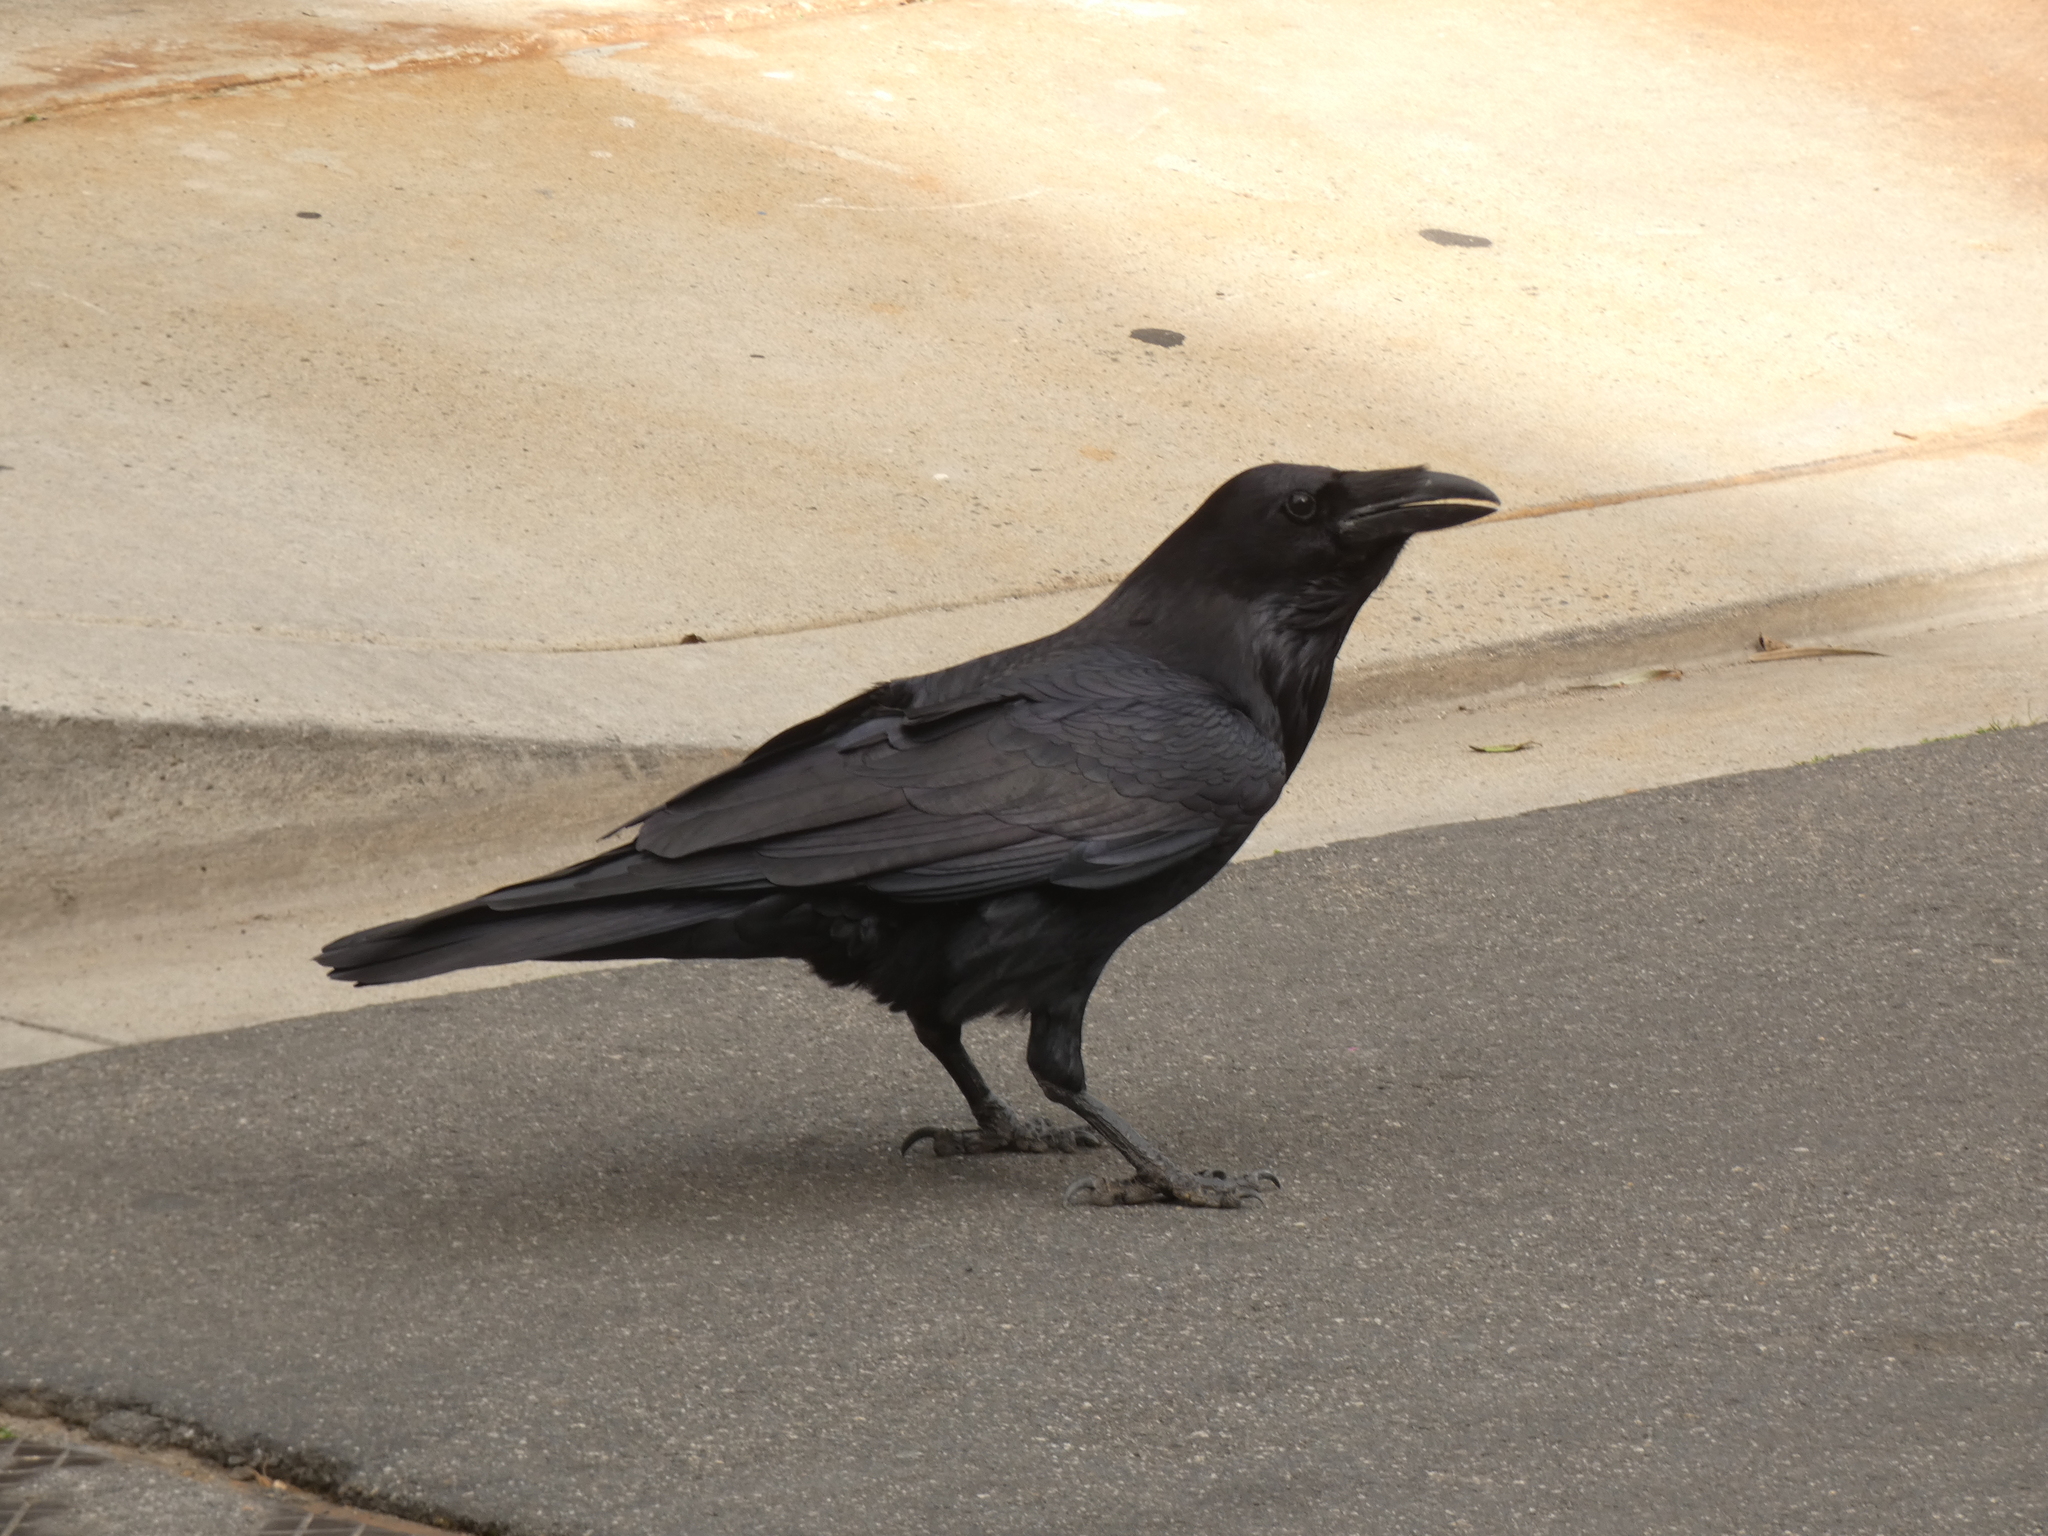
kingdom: Animalia
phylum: Chordata
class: Aves
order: Passeriformes
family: Corvidae
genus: Corvus
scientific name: Corvus corax
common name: Common raven
